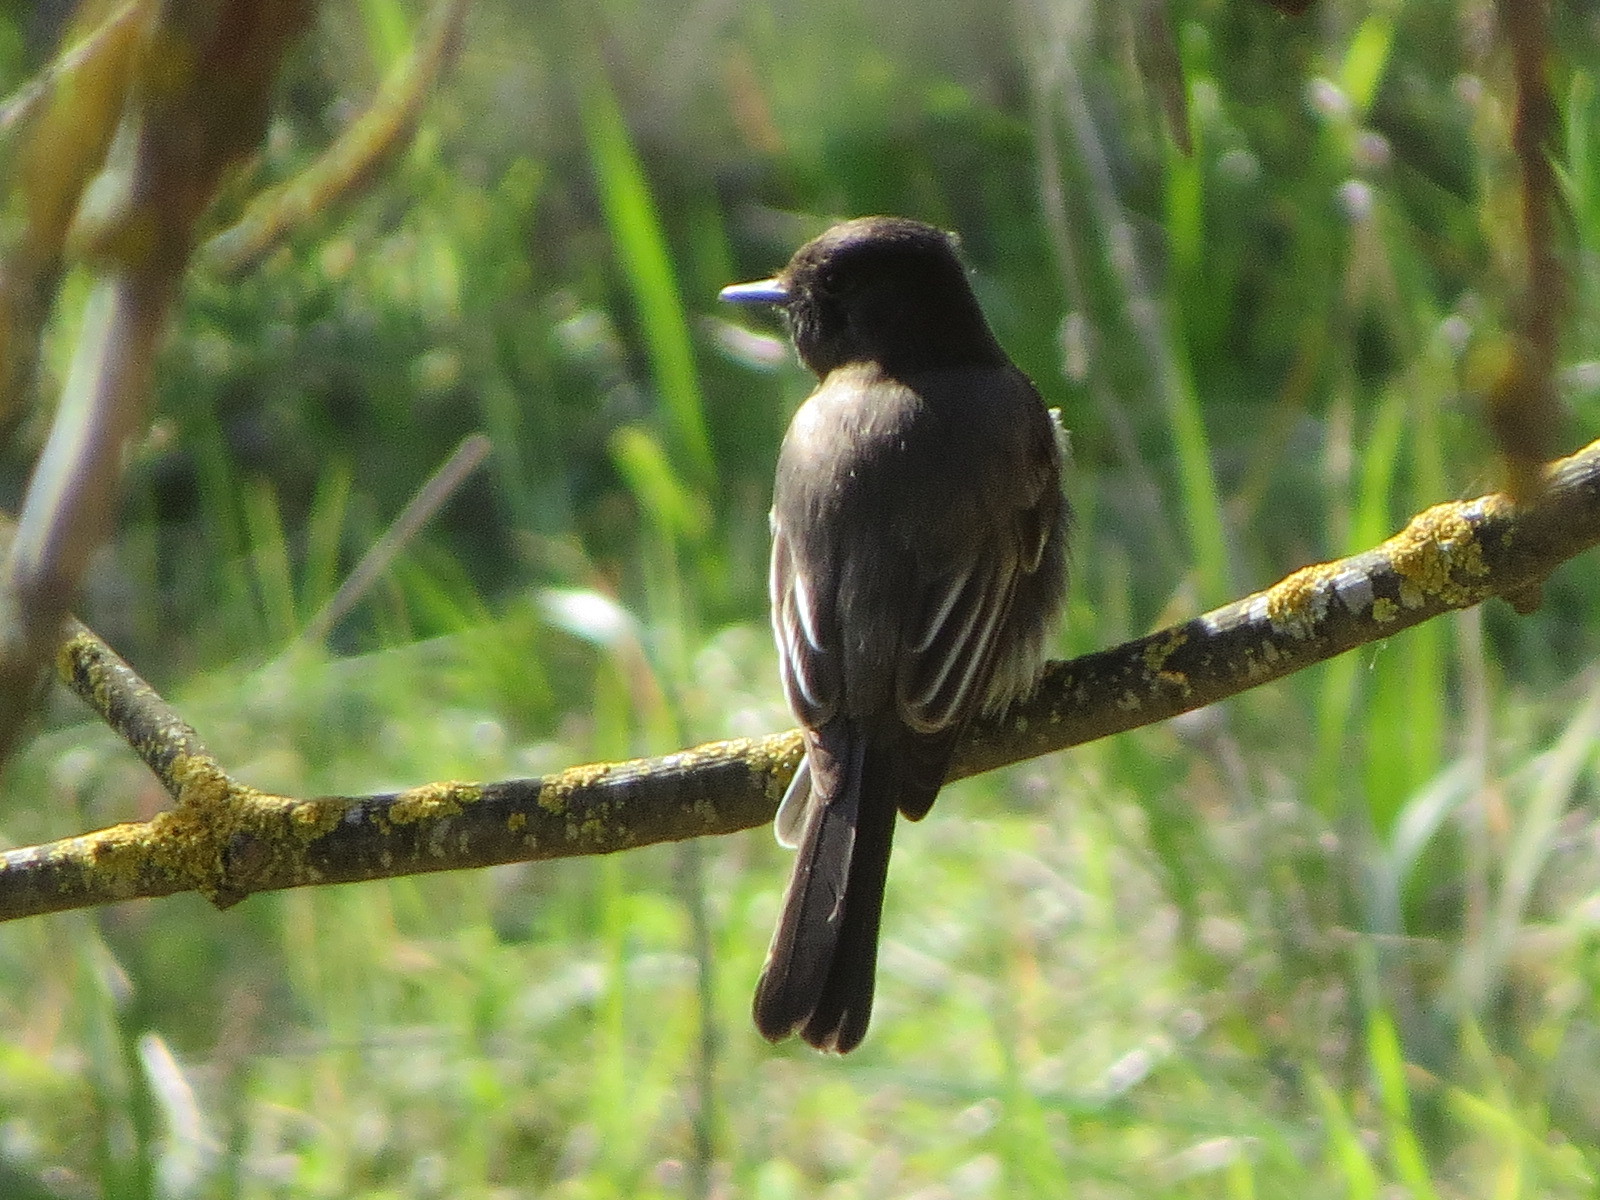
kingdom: Animalia
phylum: Chordata
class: Aves
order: Passeriformes
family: Tyrannidae
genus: Sayornis
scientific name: Sayornis nigricans
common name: Black phoebe
